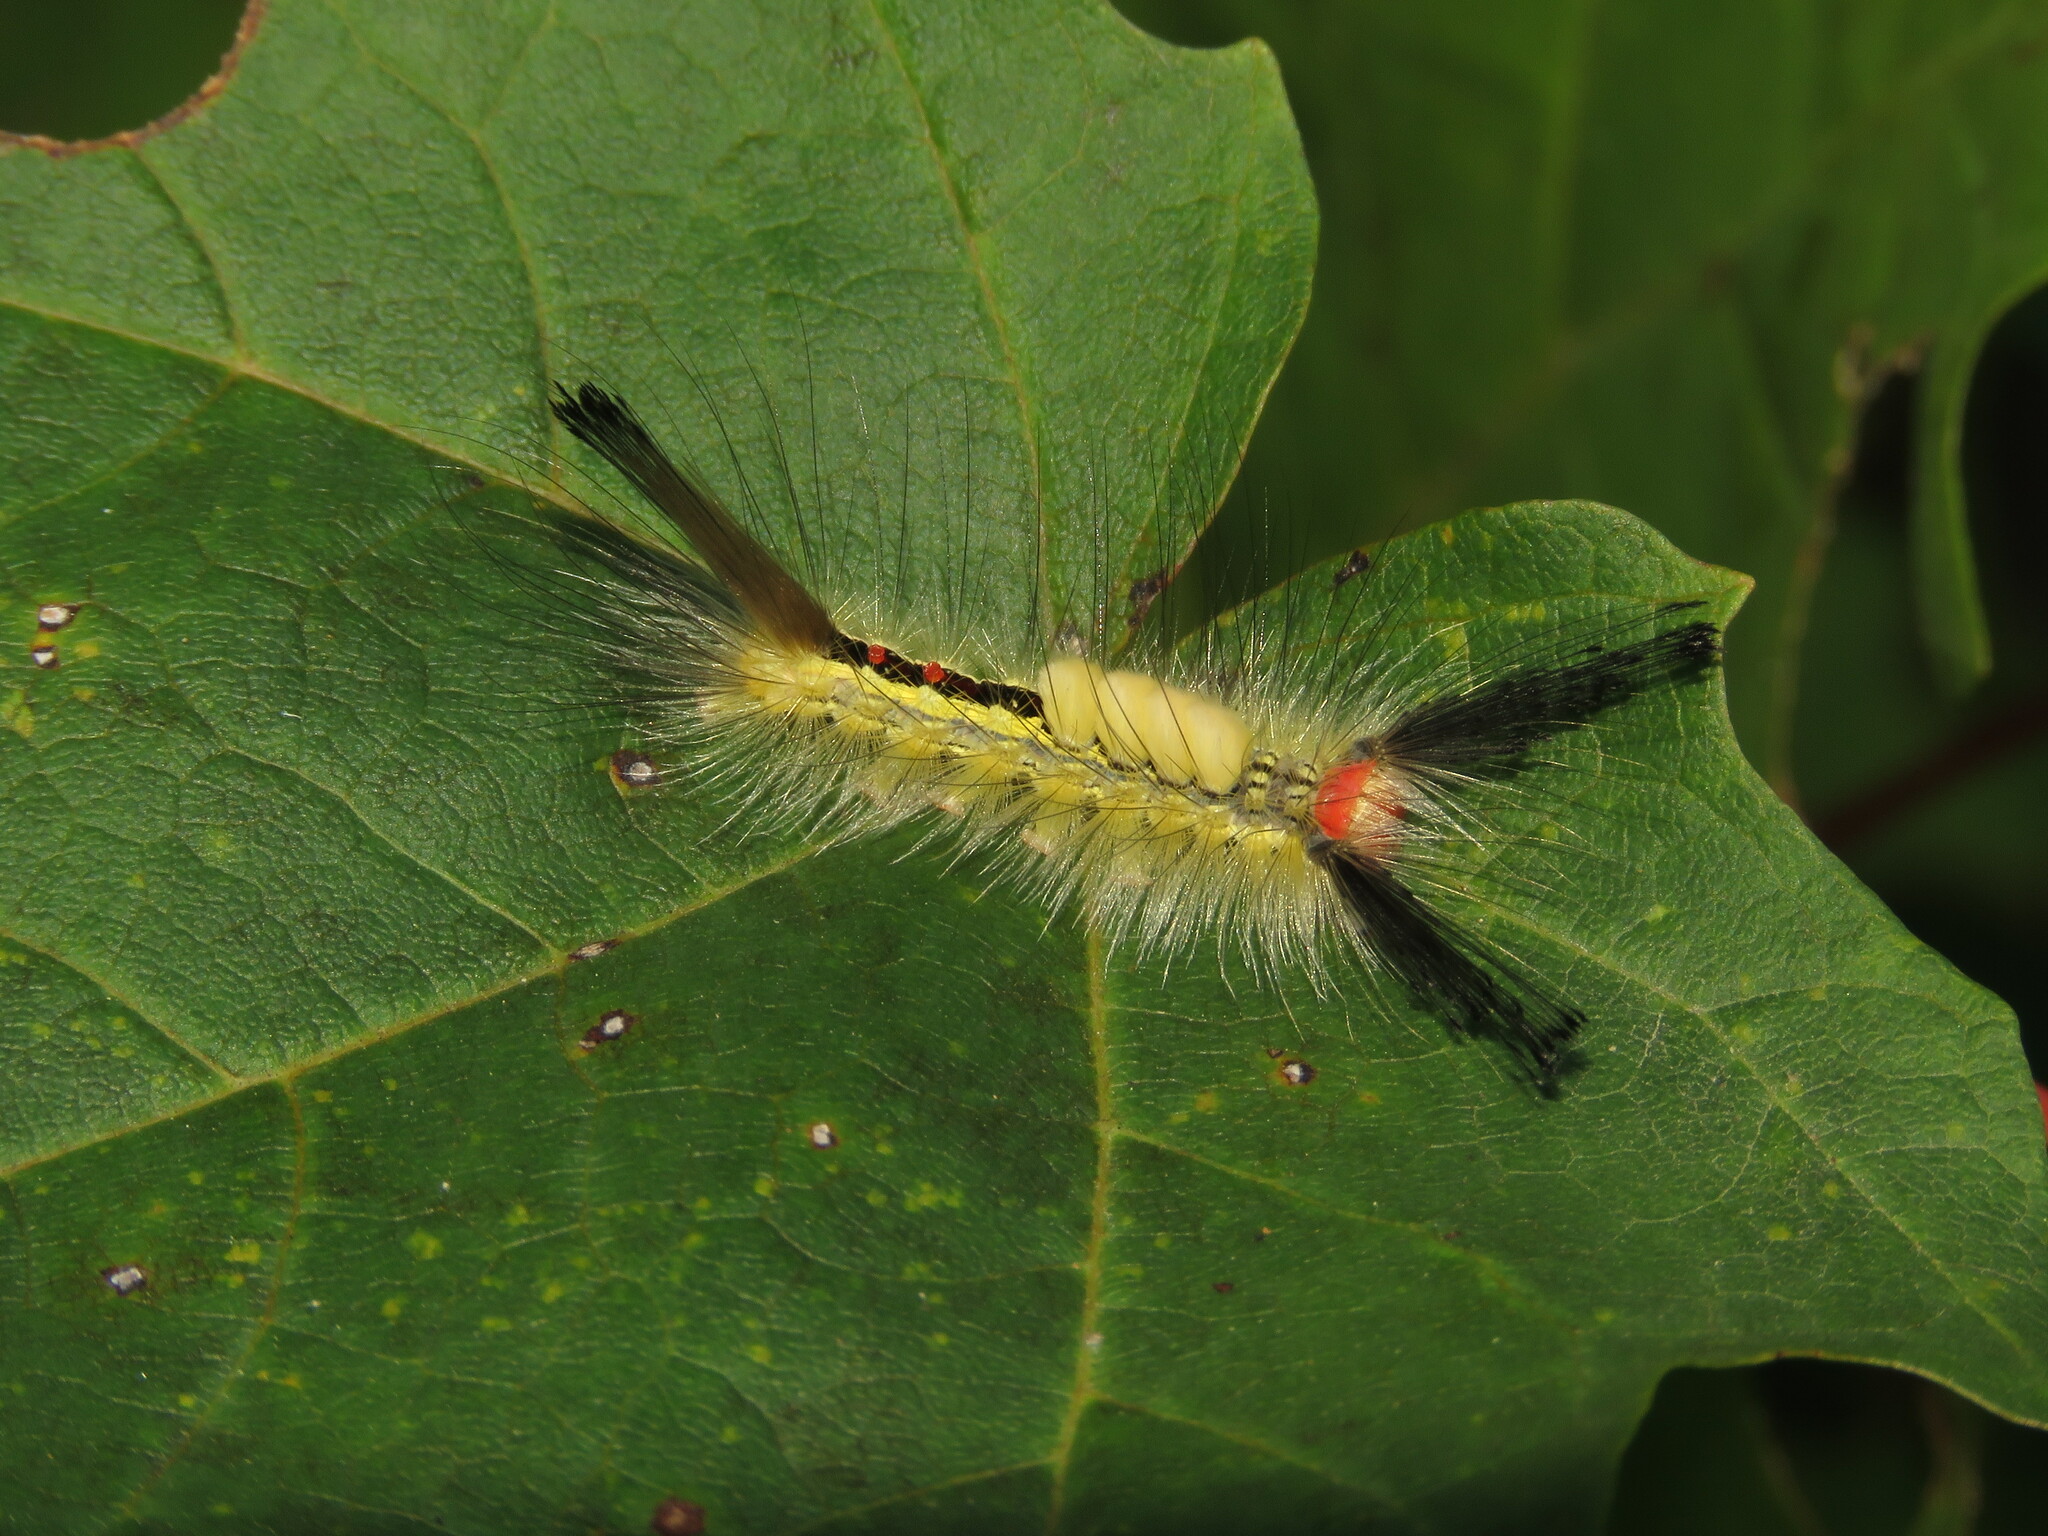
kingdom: Animalia
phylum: Arthropoda
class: Insecta
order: Lepidoptera
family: Erebidae
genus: Orgyia
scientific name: Orgyia leucostigma
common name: White-marked tussock moth
